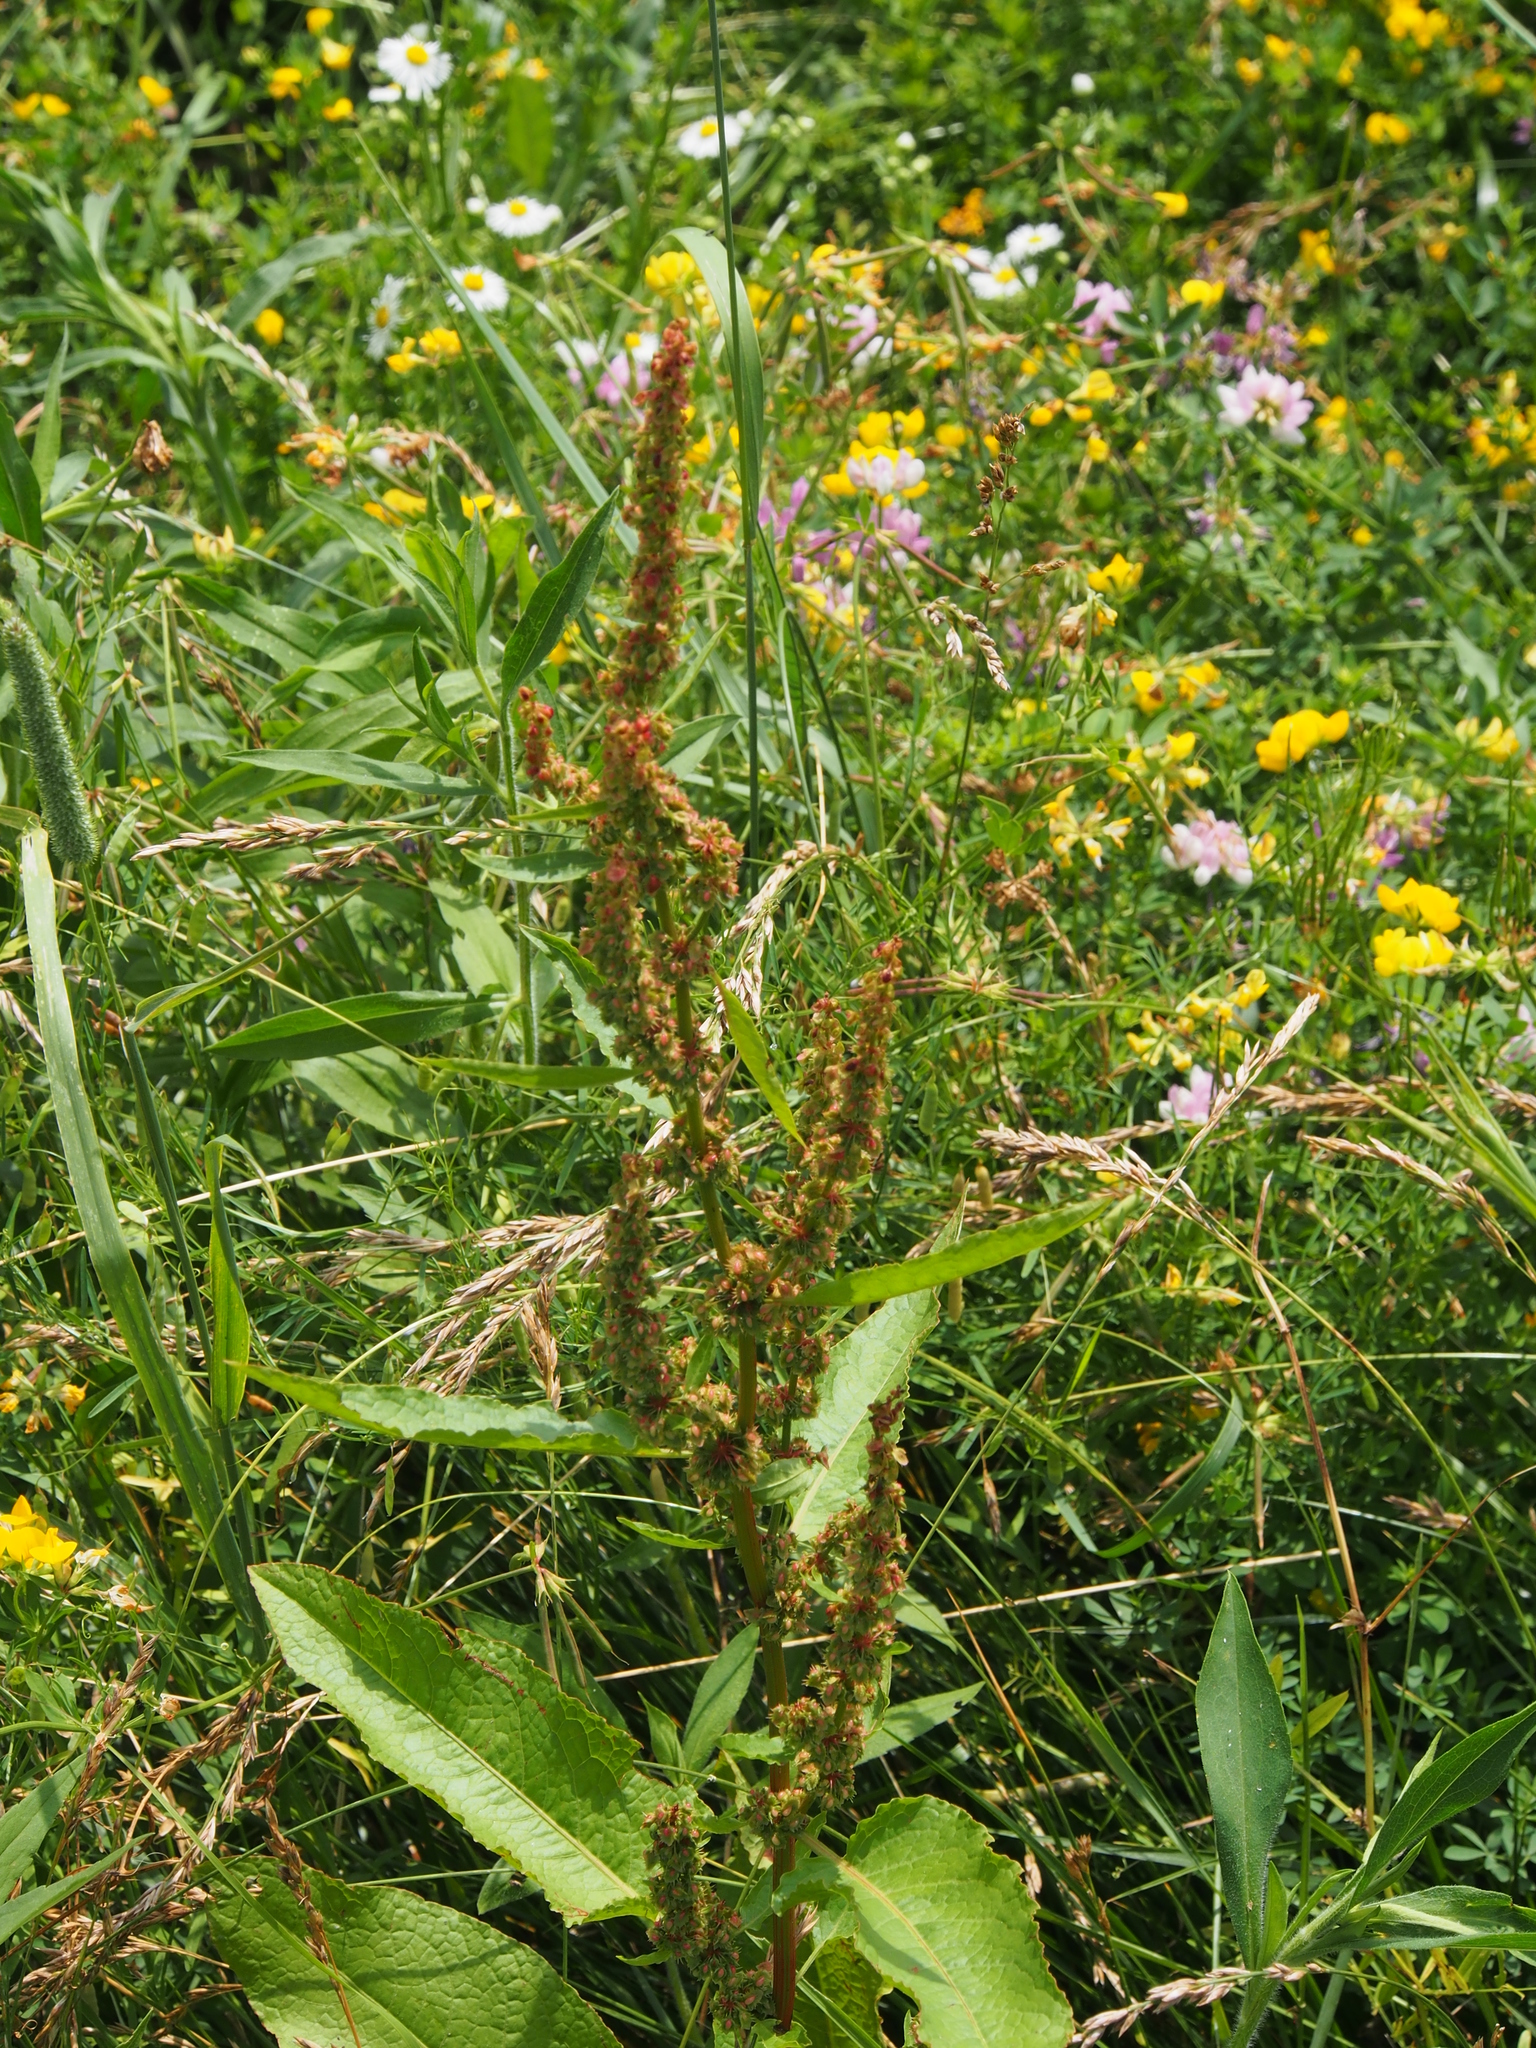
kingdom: Plantae
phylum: Tracheophyta
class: Magnoliopsida
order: Caryophyllales
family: Polygonaceae
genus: Rumex
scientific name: Rumex obtusifolius
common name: Bitter dock
